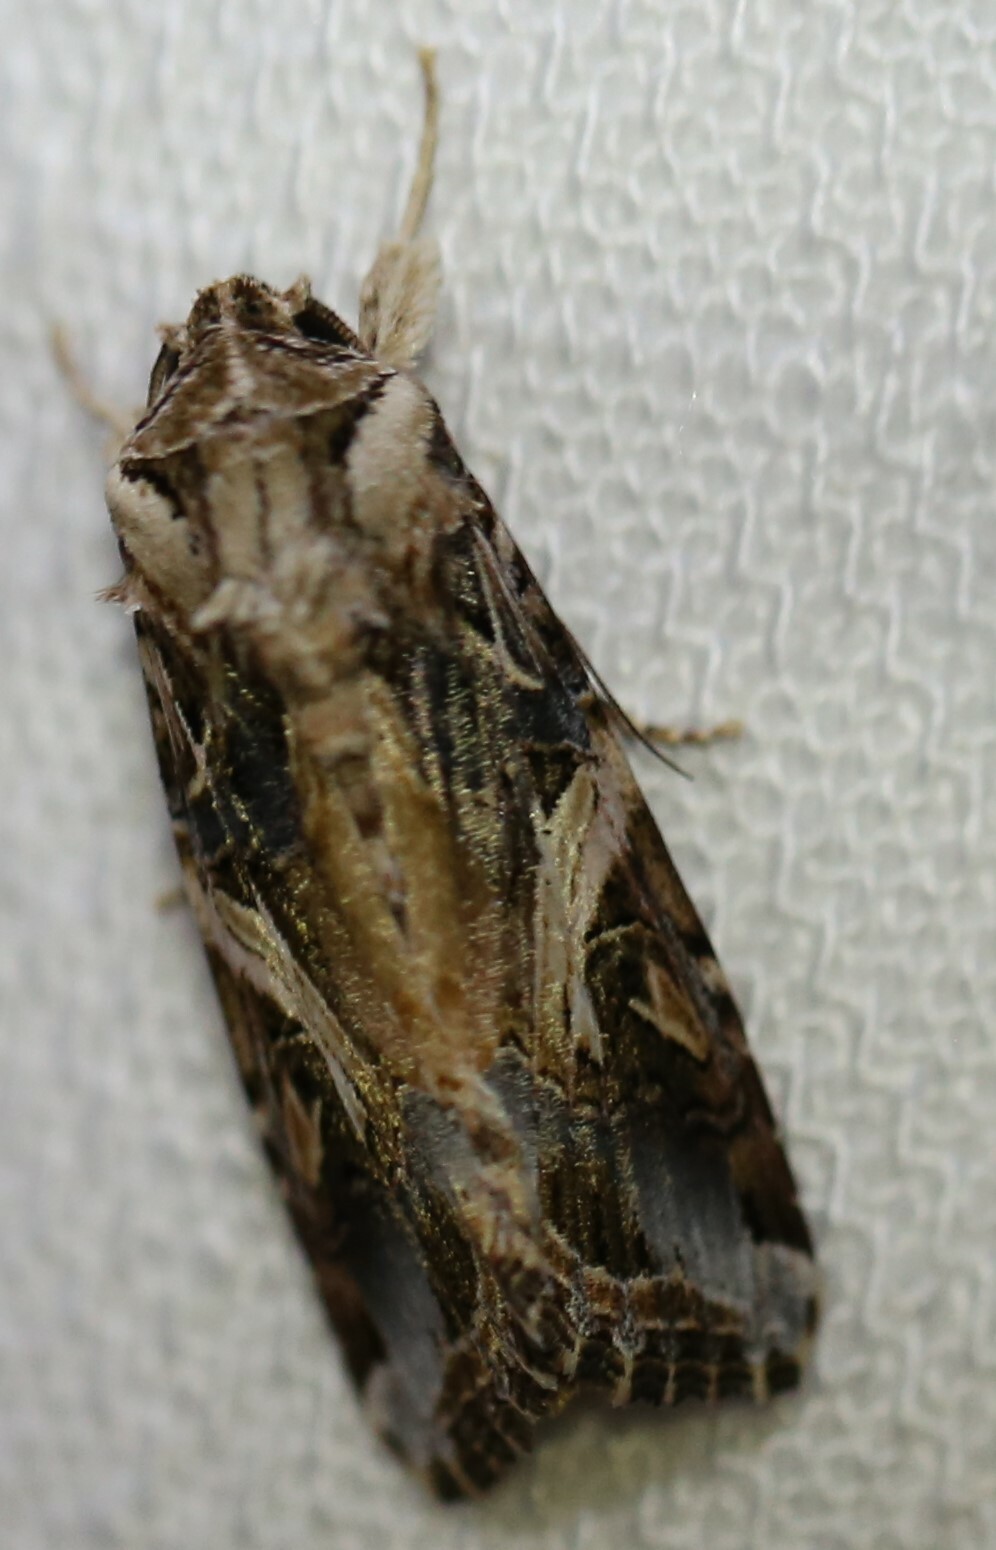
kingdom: Animalia
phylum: Arthropoda
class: Insecta
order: Lepidoptera
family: Noctuidae
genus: Spodoptera
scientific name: Spodoptera litura
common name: Asian cotton leafworm
